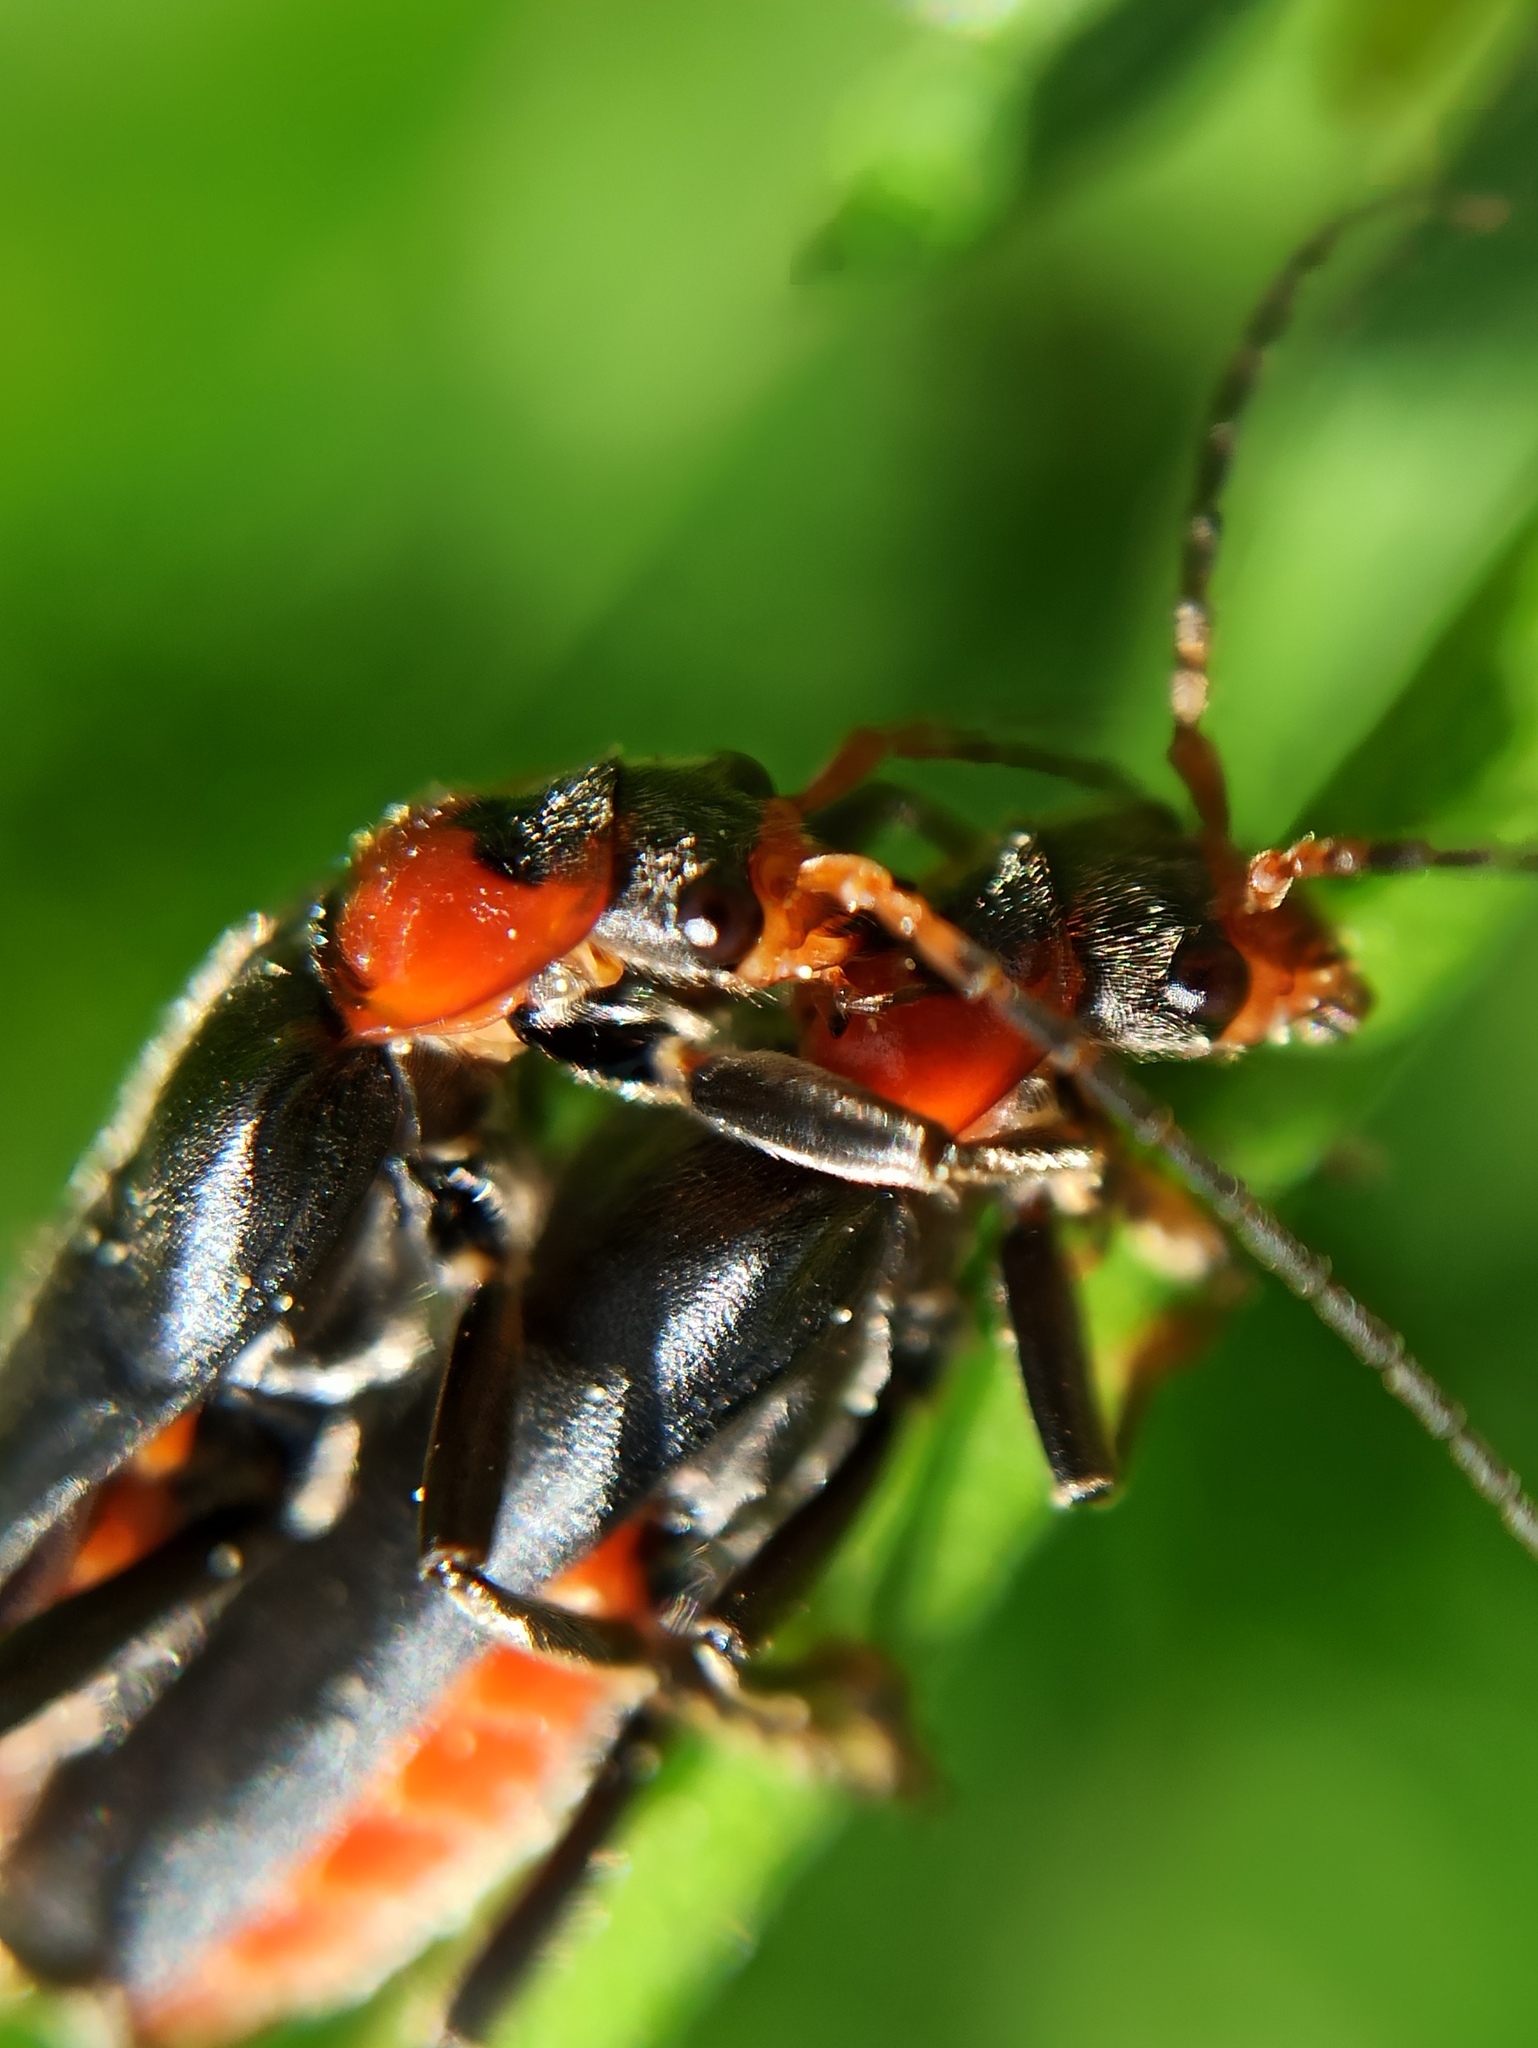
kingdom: Animalia
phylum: Arthropoda
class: Insecta
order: Coleoptera
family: Cantharidae
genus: Cantharis
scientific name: Cantharis fusca
